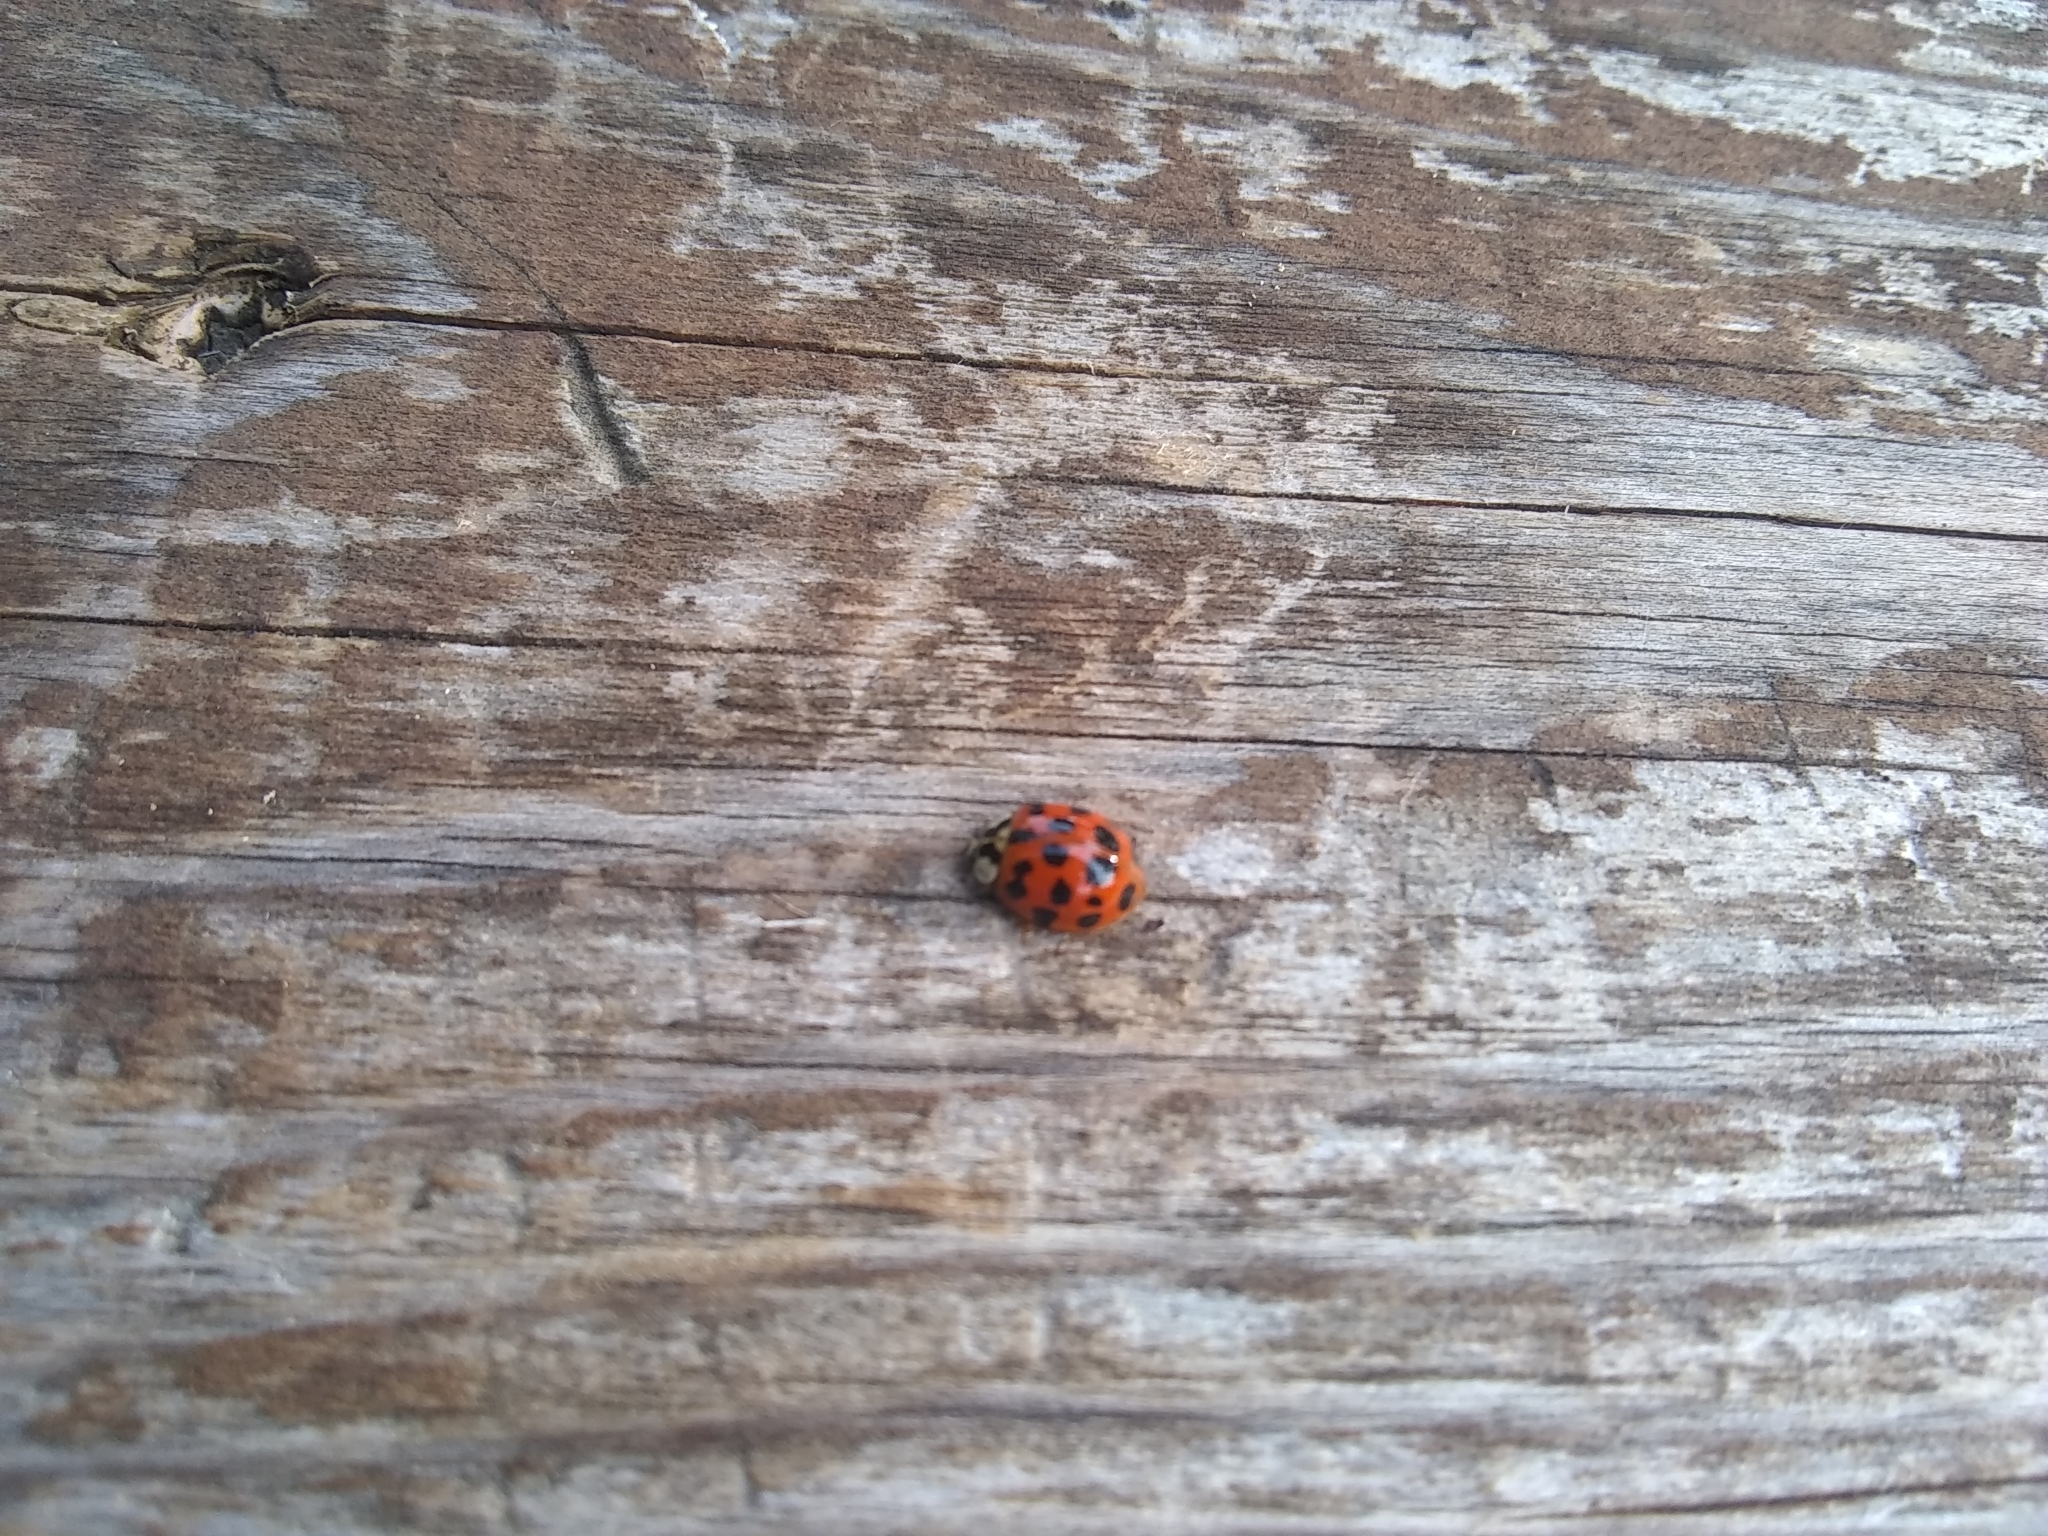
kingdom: Animalia
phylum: Arthropoda
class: Insecta
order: Coleoptera
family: Coccinellidae
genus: Harmonia
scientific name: Harmonia axyridis
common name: Harlequin ladybird
